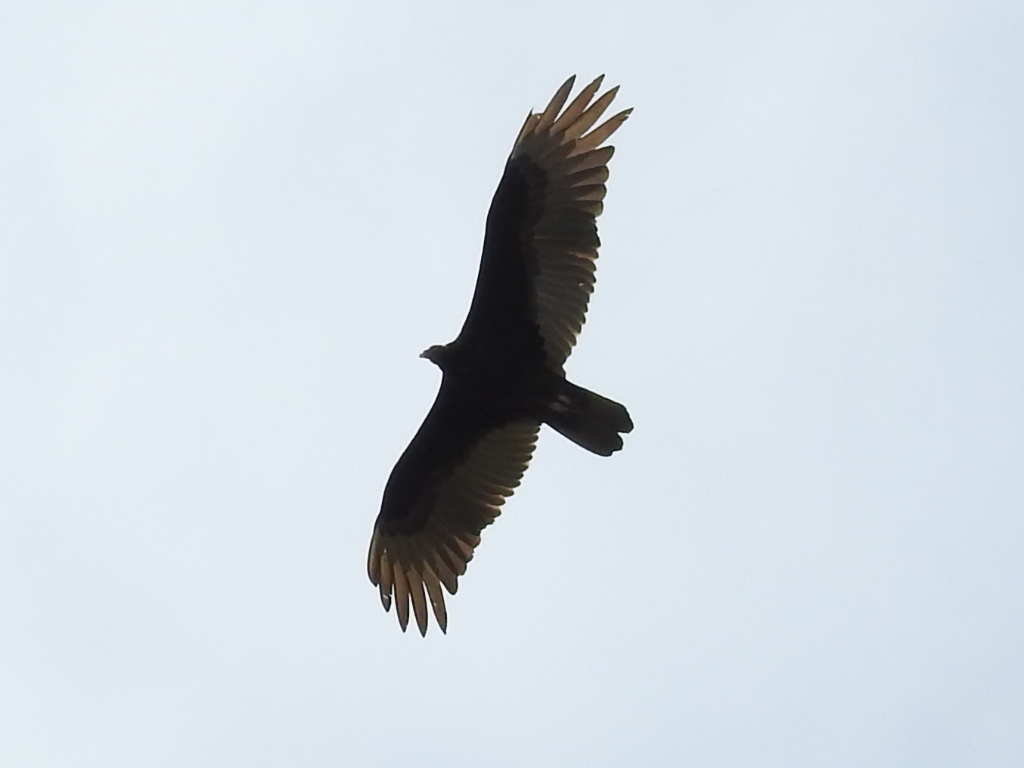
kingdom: Animalia
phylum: Chordata
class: Aves
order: Accipitriformes
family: Cathartidae
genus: Cathartes
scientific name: Cathartes aura
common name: Turkey vulture
